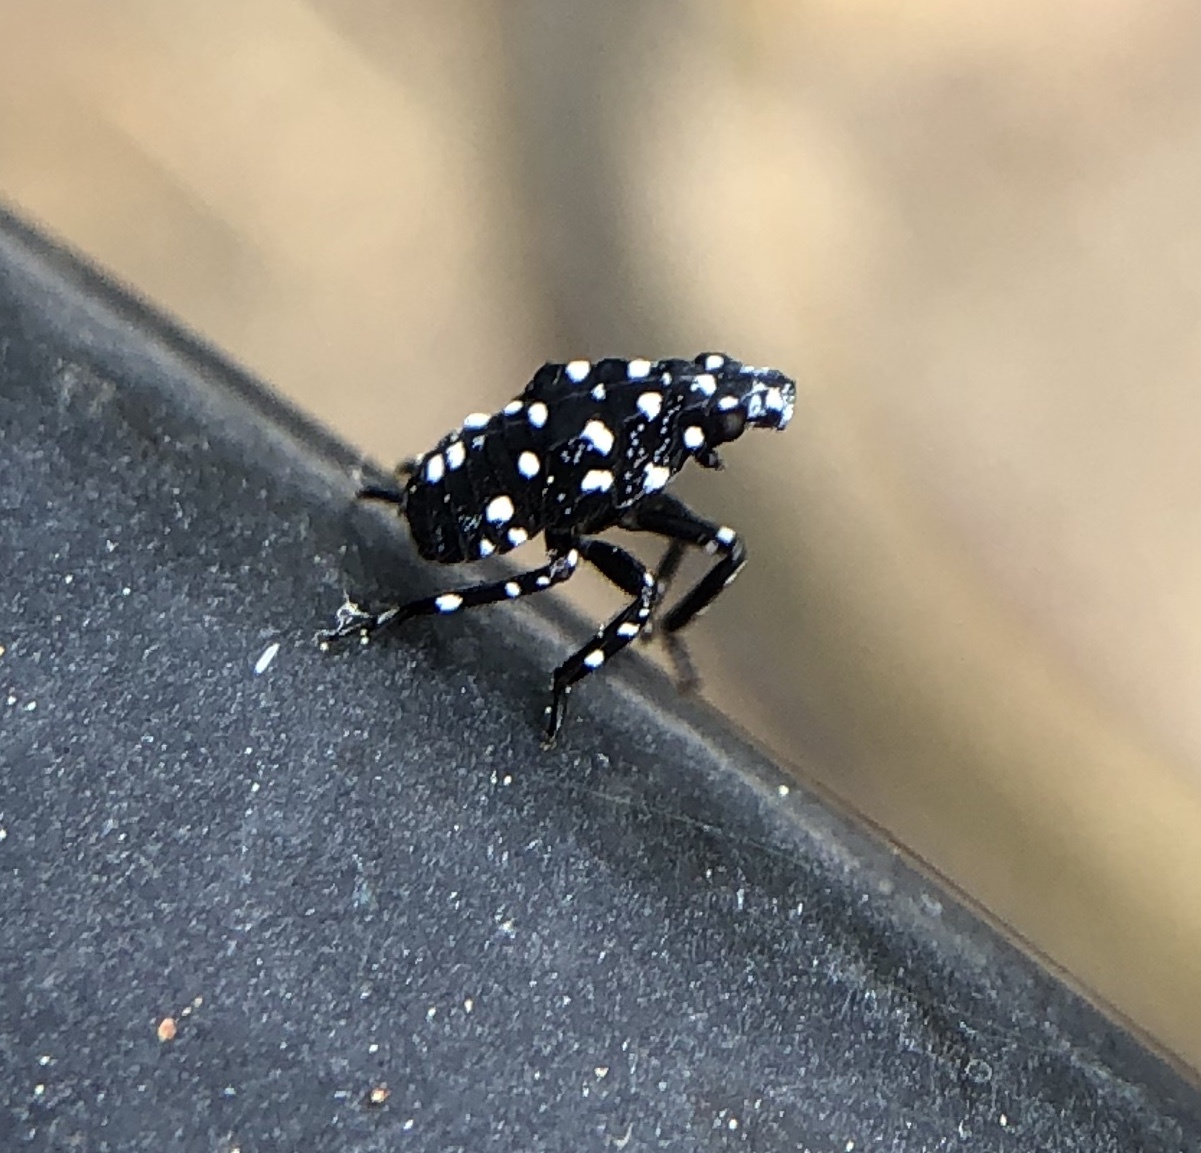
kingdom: Animalia
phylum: Arthropoda
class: Insecta
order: Hemiptera
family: Fulgoridae
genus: Lycorma
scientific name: Lycorma delicatula
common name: Spotted lanternfly
